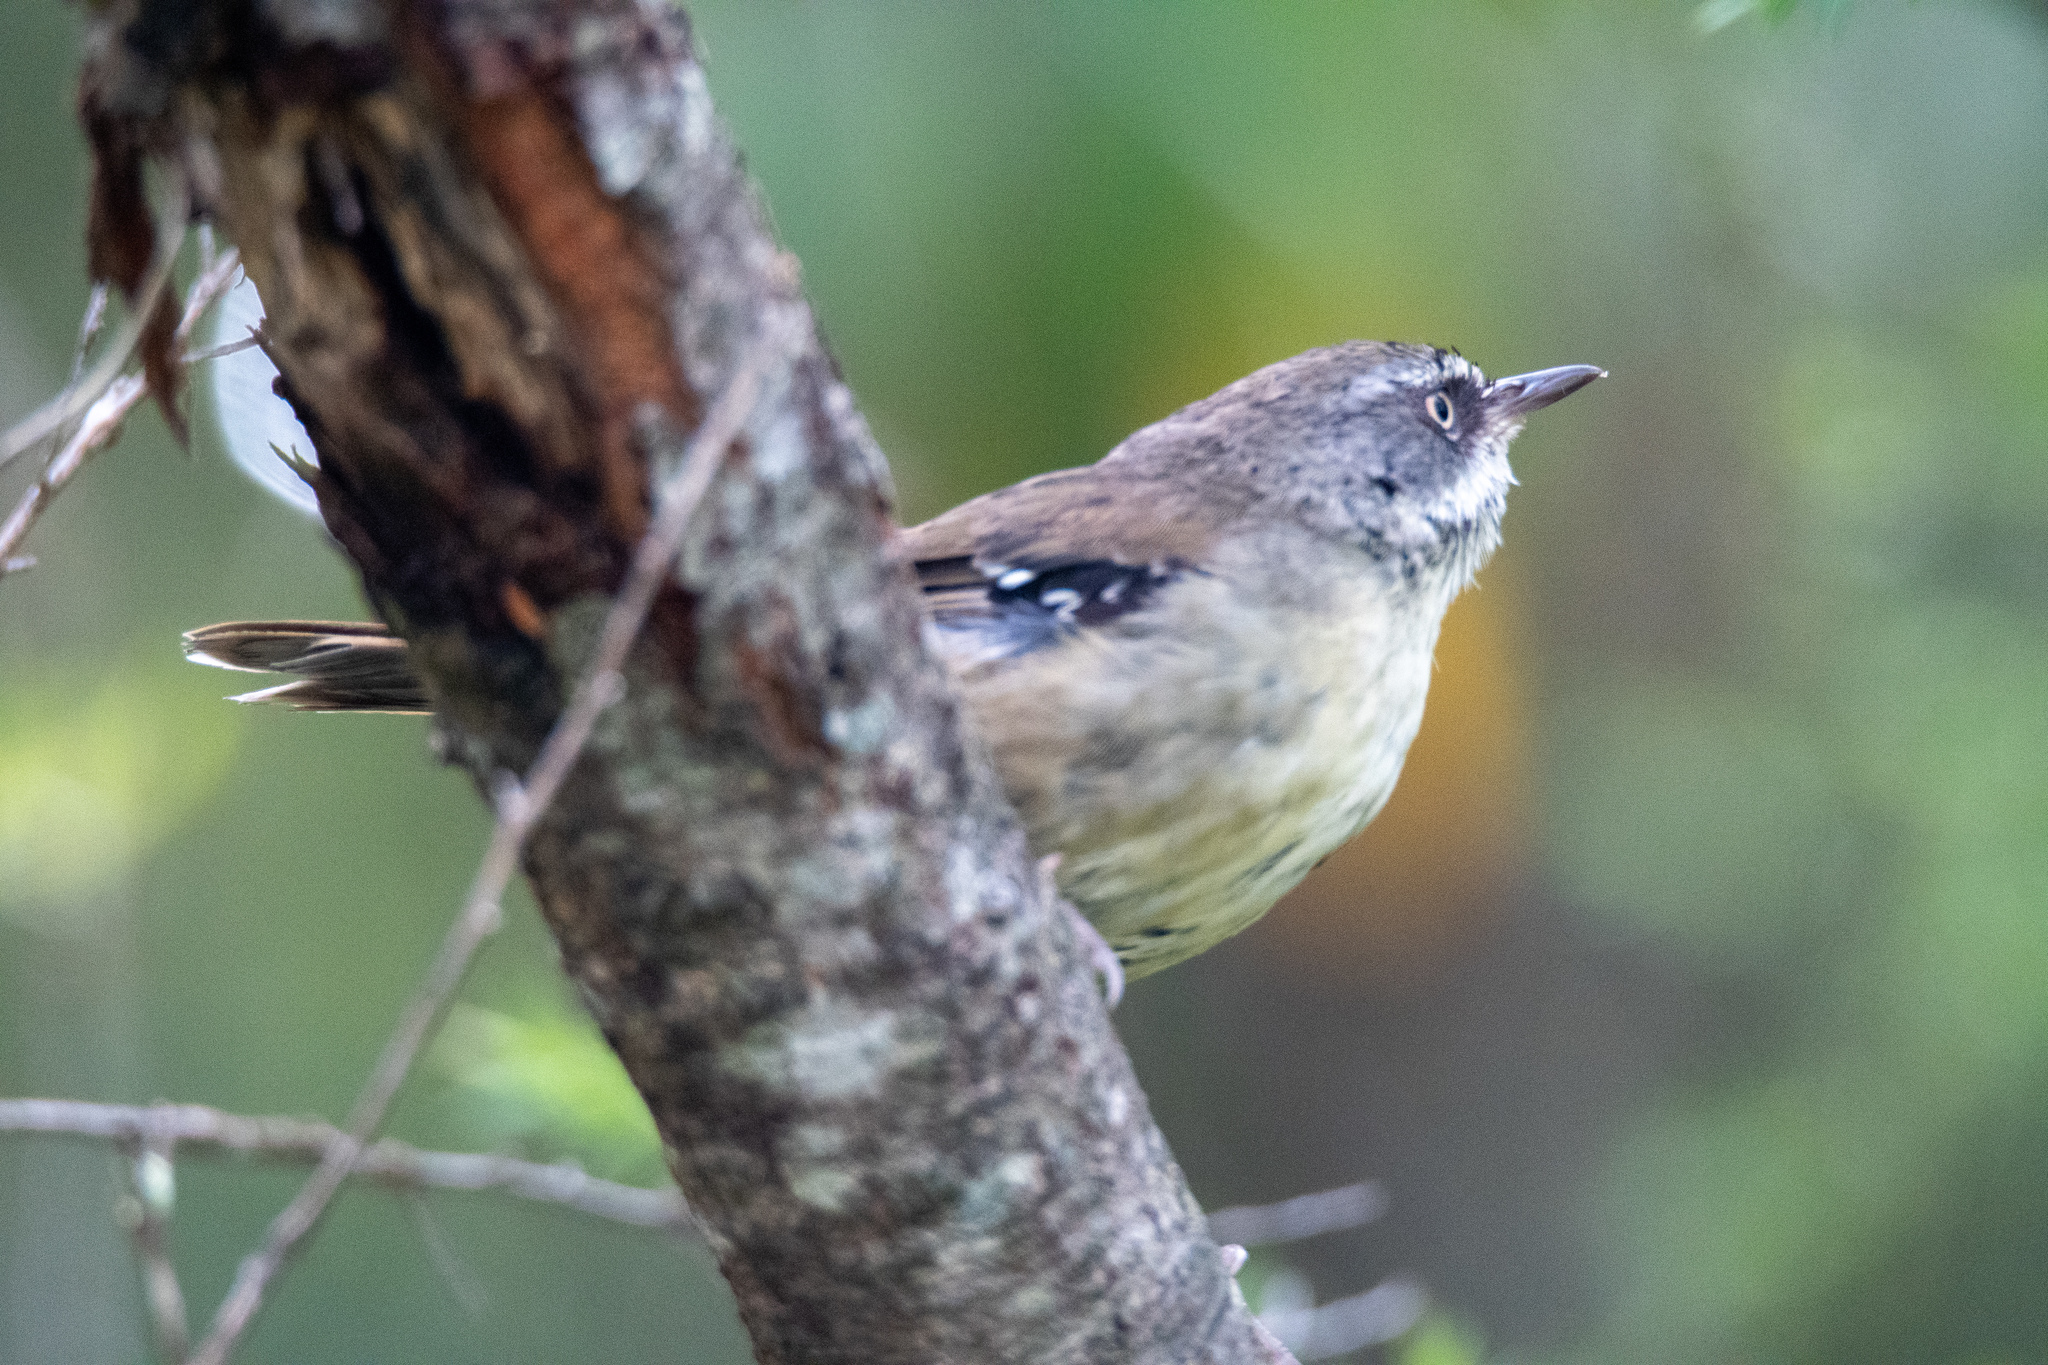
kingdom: Animalia
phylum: Chordata
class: Aves
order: Passeriformes
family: Acanthizidae
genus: Sericornis
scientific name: Sericornis frontalis
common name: White-browed scrubwren
